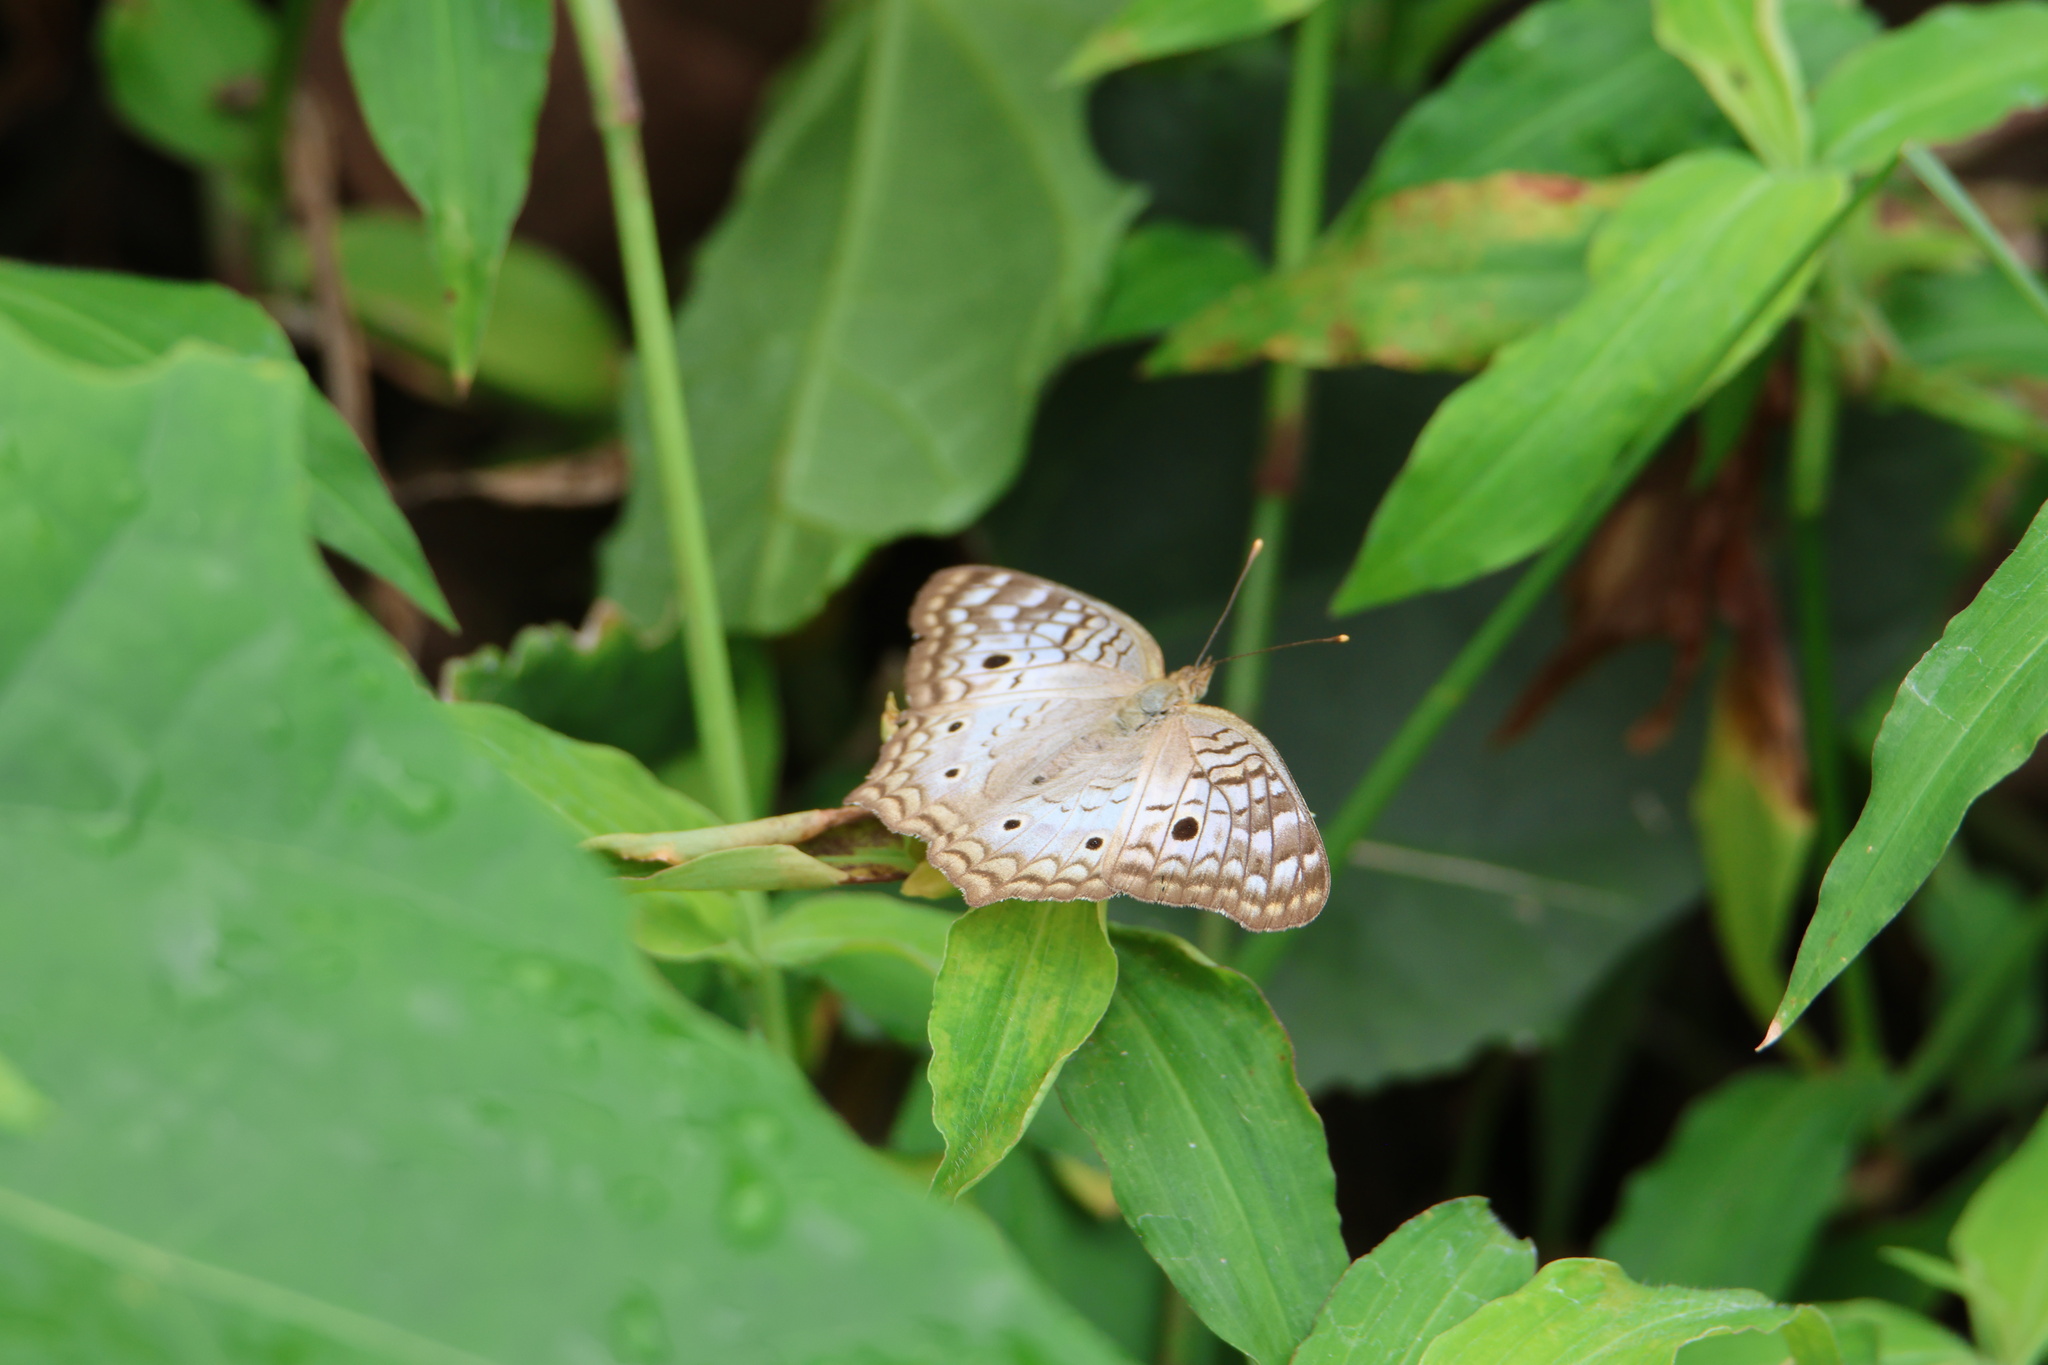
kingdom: Animalia
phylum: Arthropoda
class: Insecta
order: Lepidoptera
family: Nymphalidae
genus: Anartia
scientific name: Anartia jatrophae
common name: White peacock
